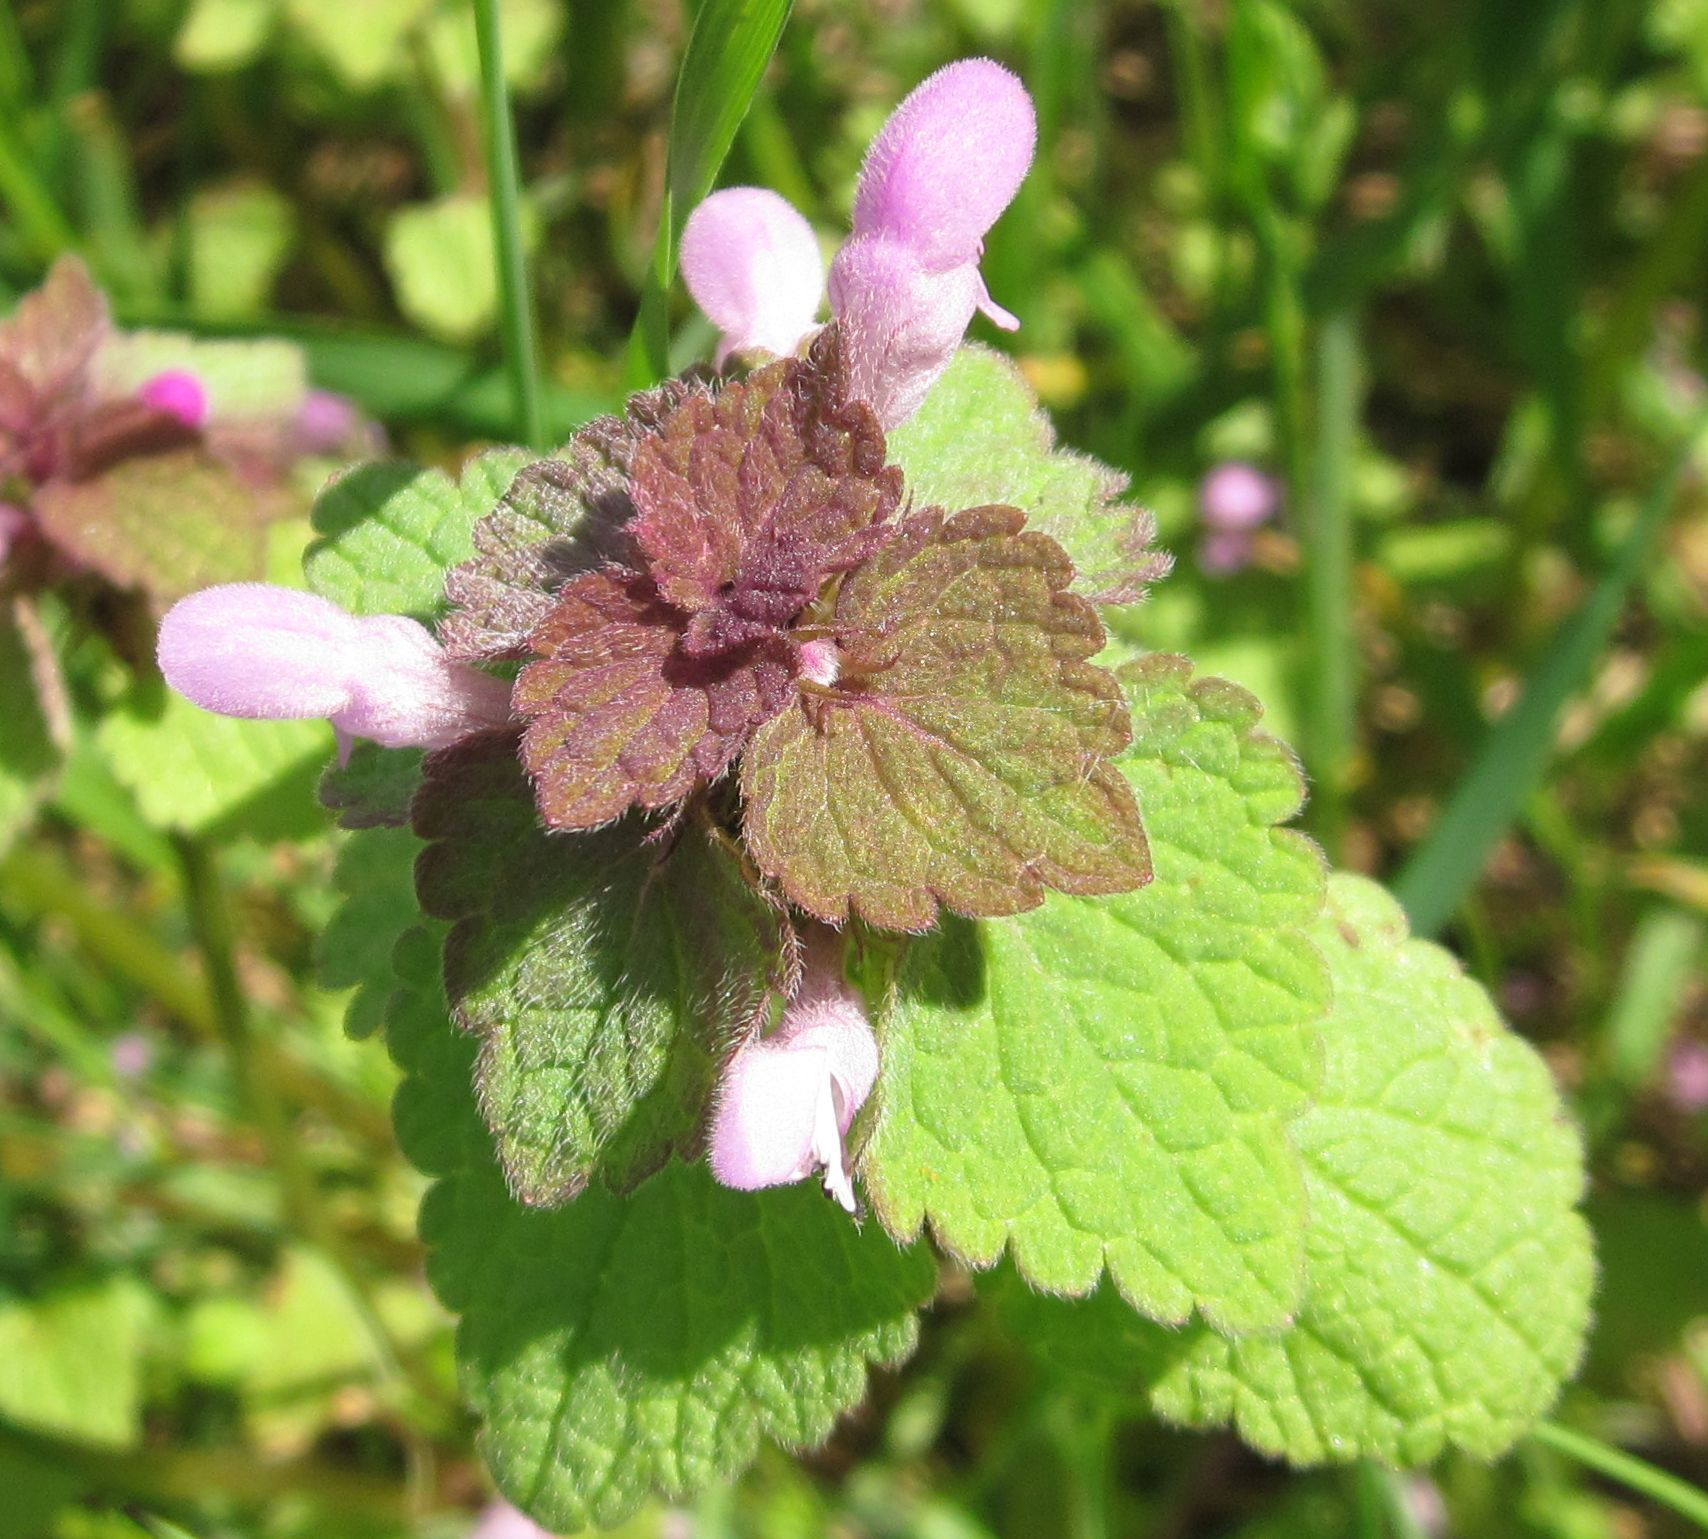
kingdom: Plantae
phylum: Tracheophyta
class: Magnoliopsida
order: Lamiales
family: Lamiaceae
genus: Lamium
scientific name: Lamium purpureum
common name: Red dead-nettle
